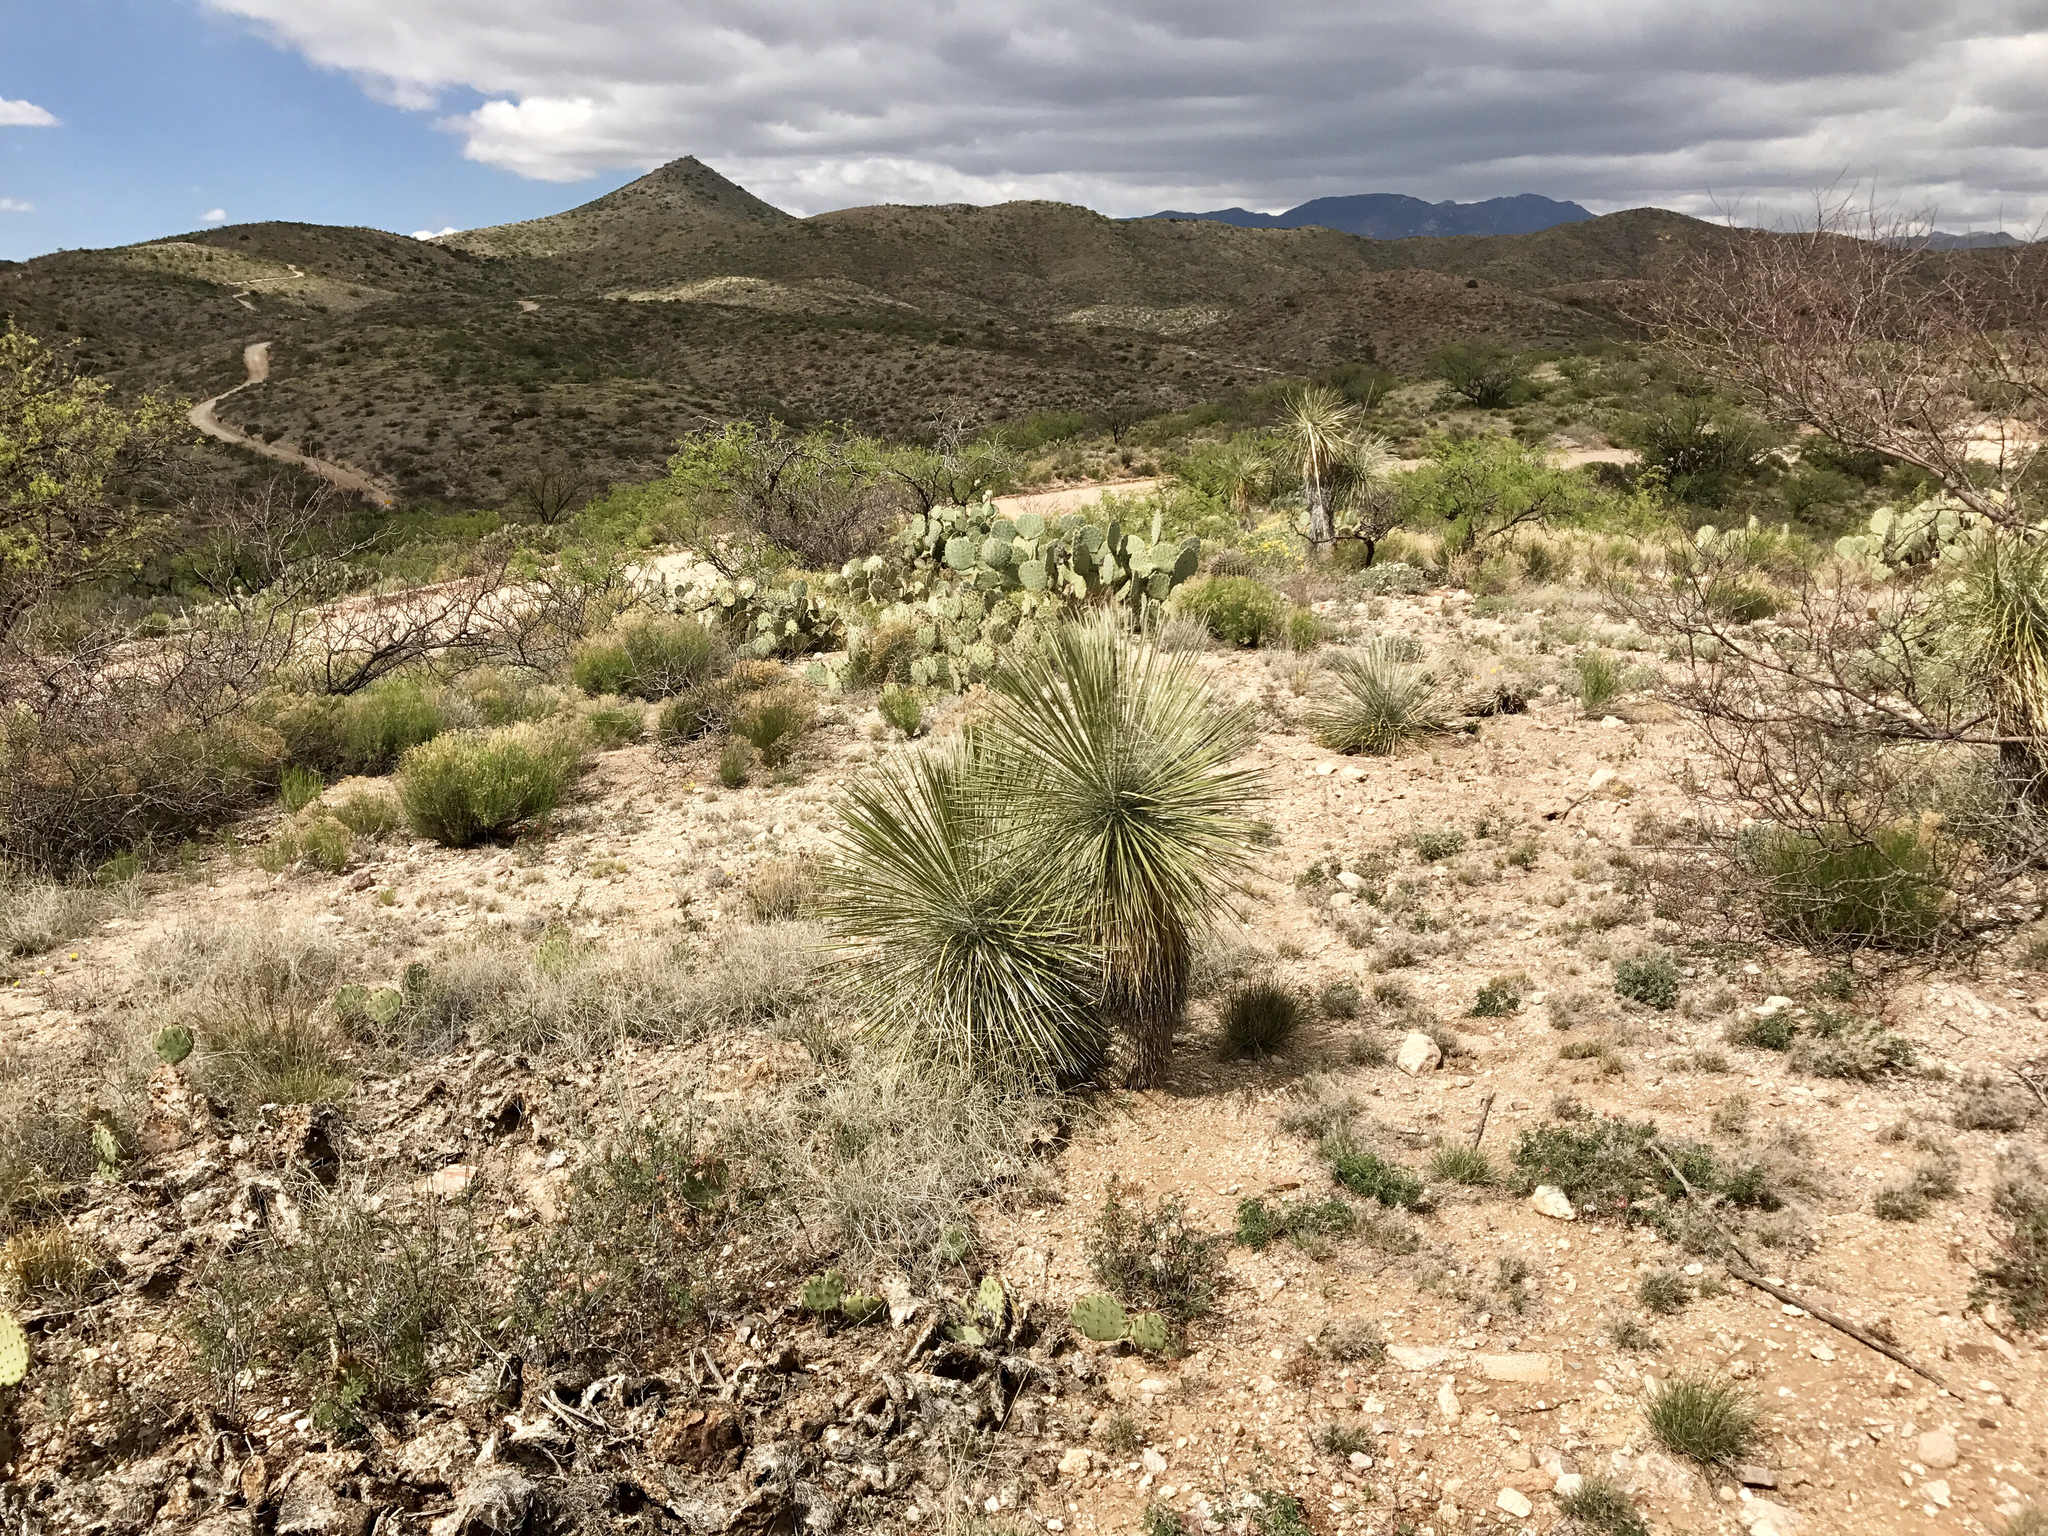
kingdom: Plantae
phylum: Tracheophyta
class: Liliopsida
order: Asparagales
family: Asparagaceae
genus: Yucca
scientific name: Yucca elata
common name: Palmella
